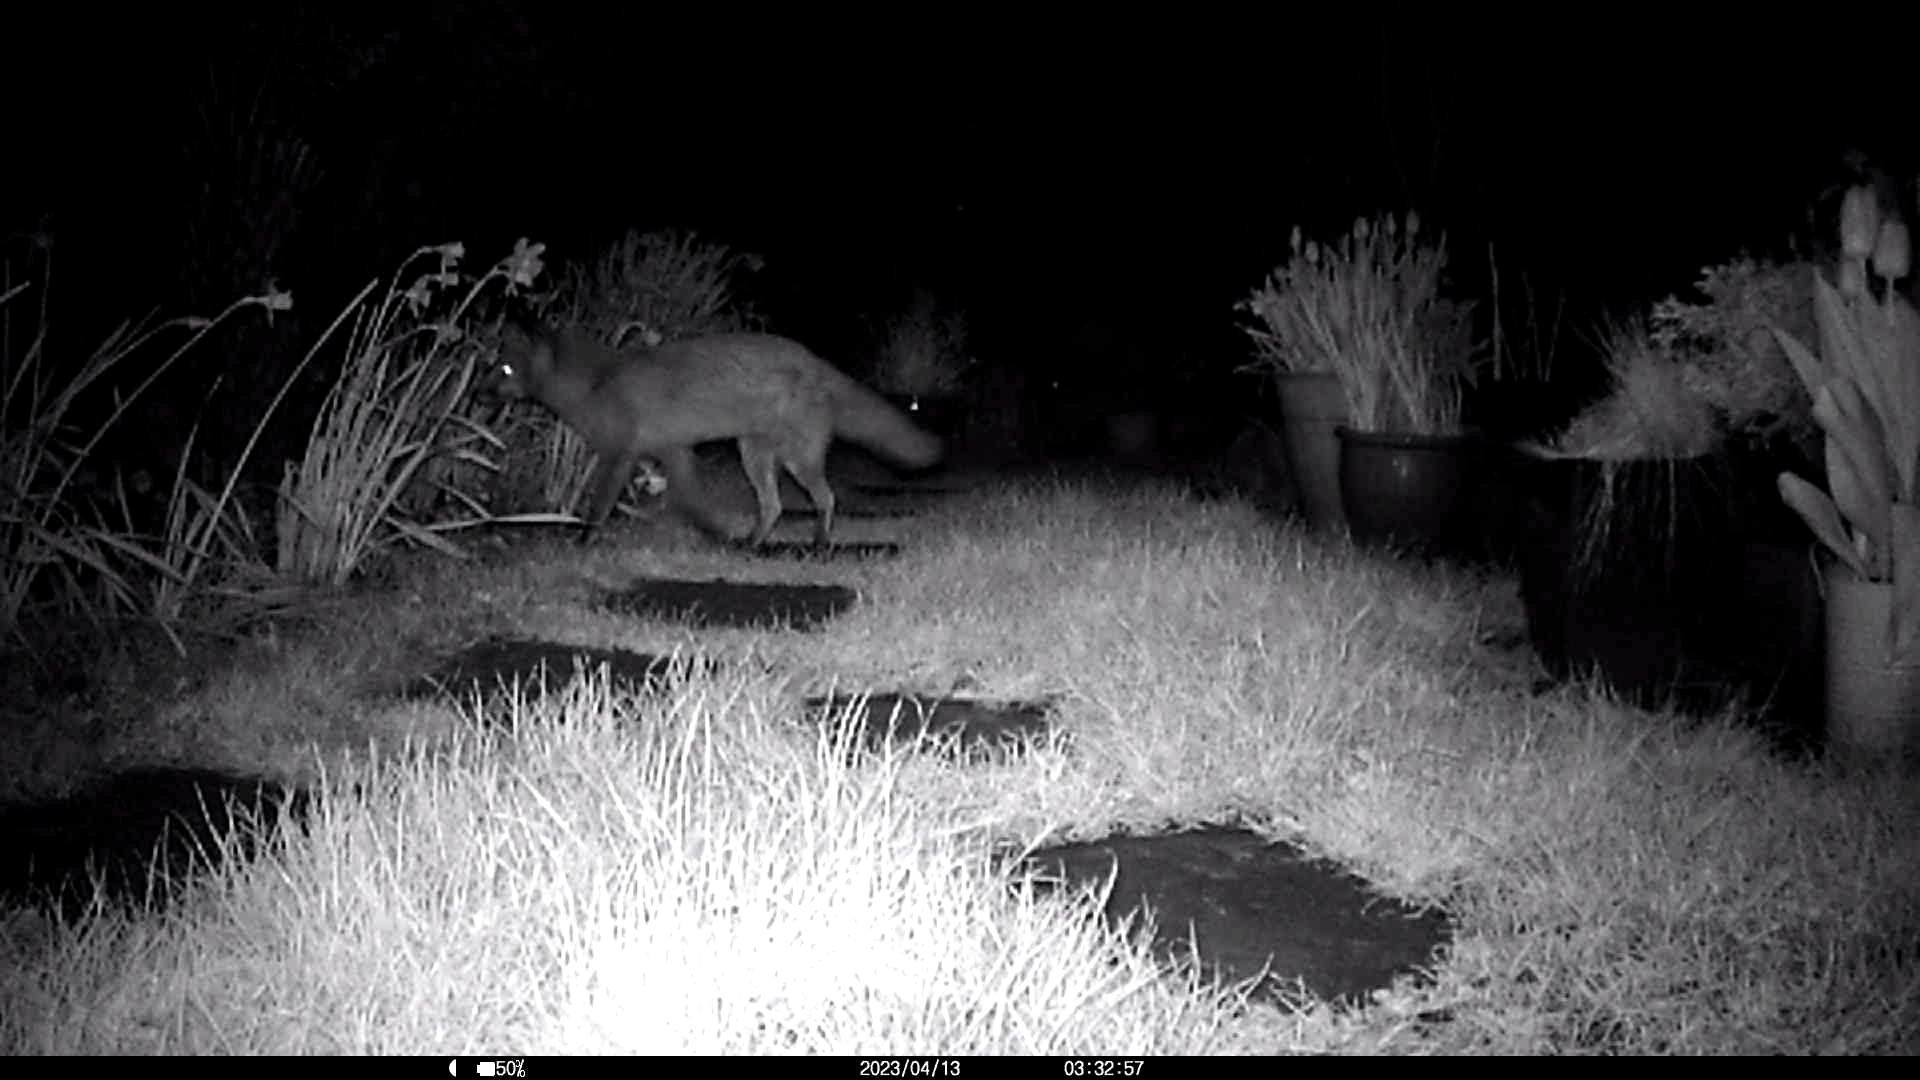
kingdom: Animalia
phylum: Chordata
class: Mammalia
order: Carnivora
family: Canidae
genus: Vulpes
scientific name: Vulpes vulpes
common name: Red fox
